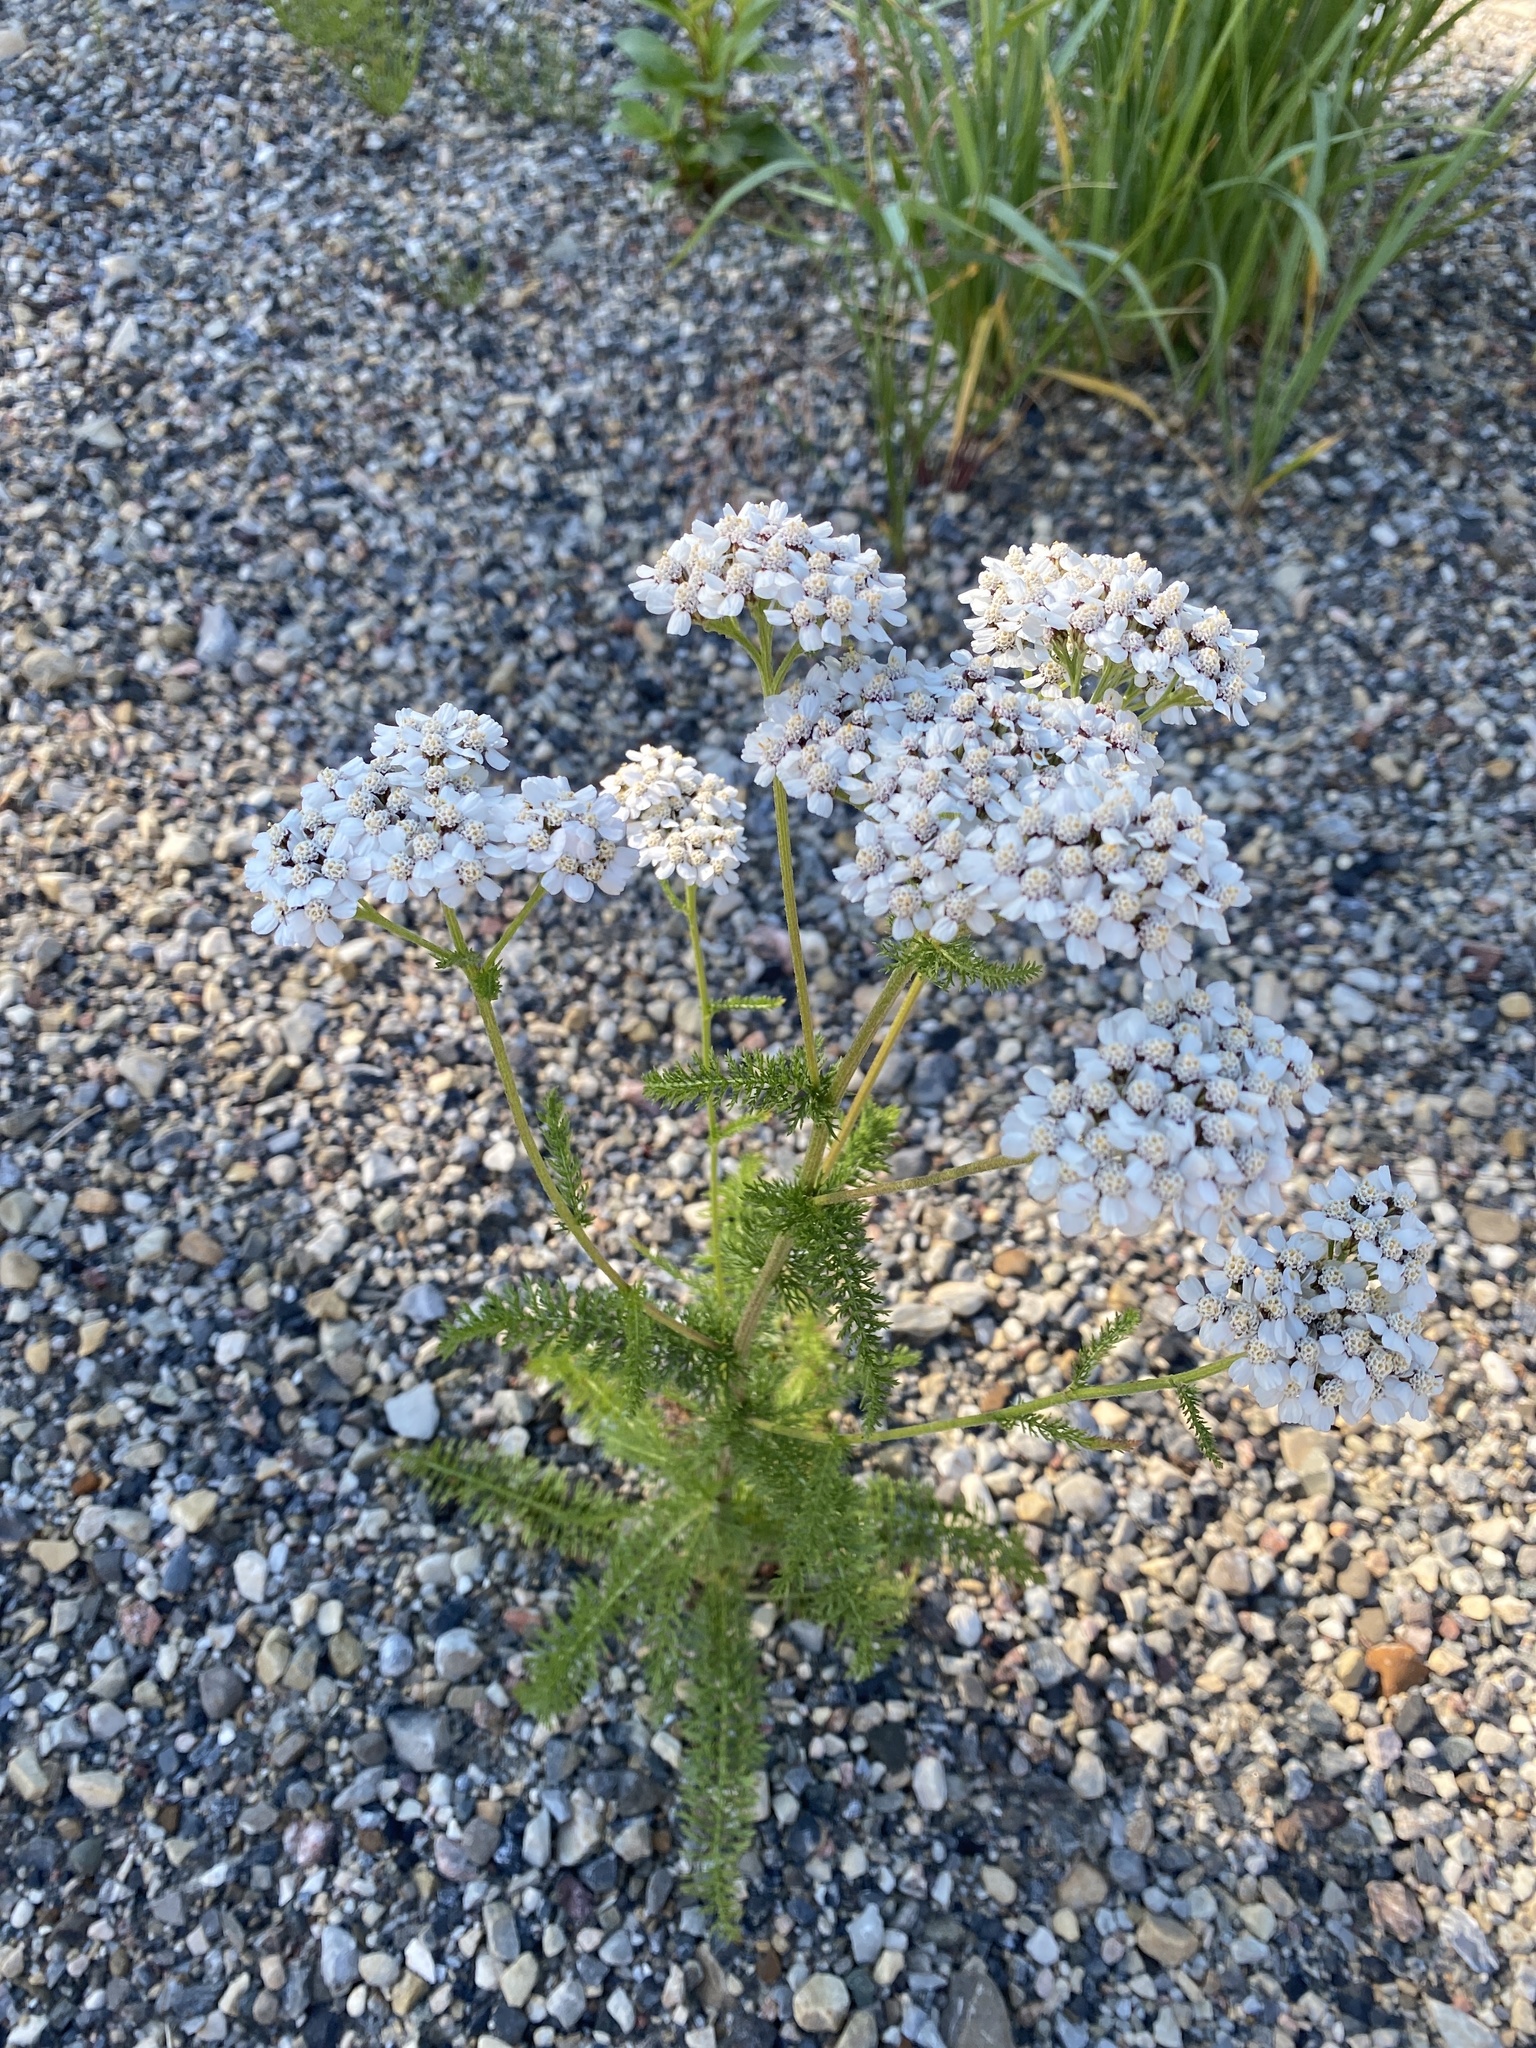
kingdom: Plantae
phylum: Tracheophyta
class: Magnoliopsida
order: Asterales
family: Asteraceae
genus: Achillea
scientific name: Achillea millefolium
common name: Yarrow
